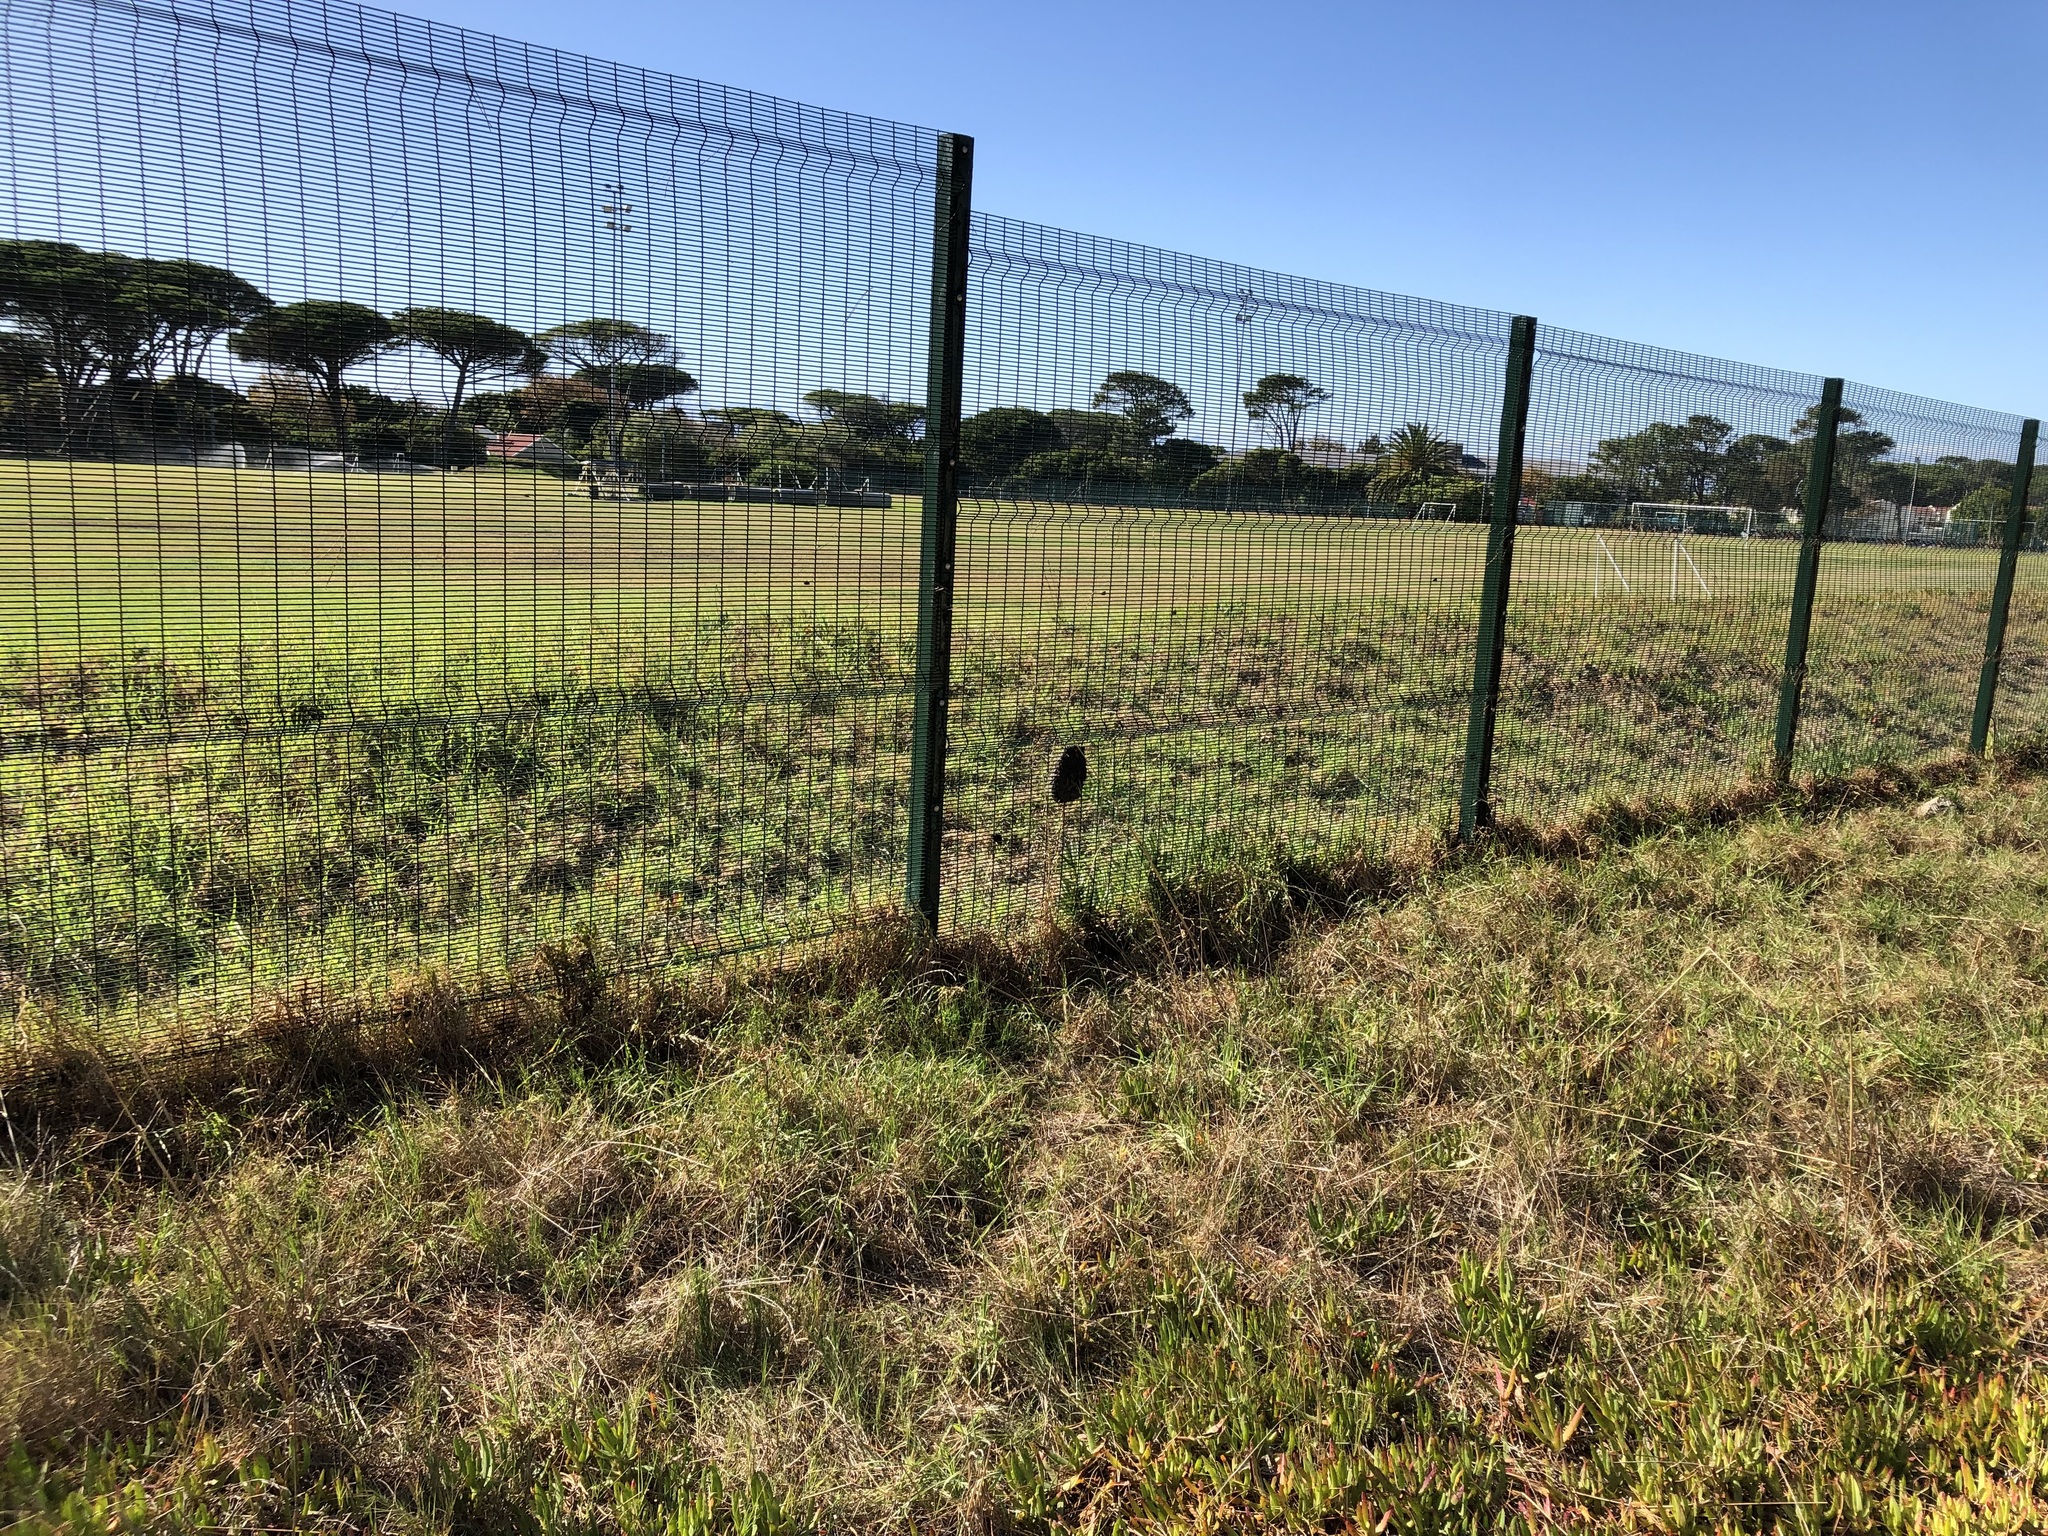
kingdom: Animalia
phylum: Arthropoda
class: Insecta
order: Hymenoptera
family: Formicidae
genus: Crematogaster
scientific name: Crematogaster peringueyi
